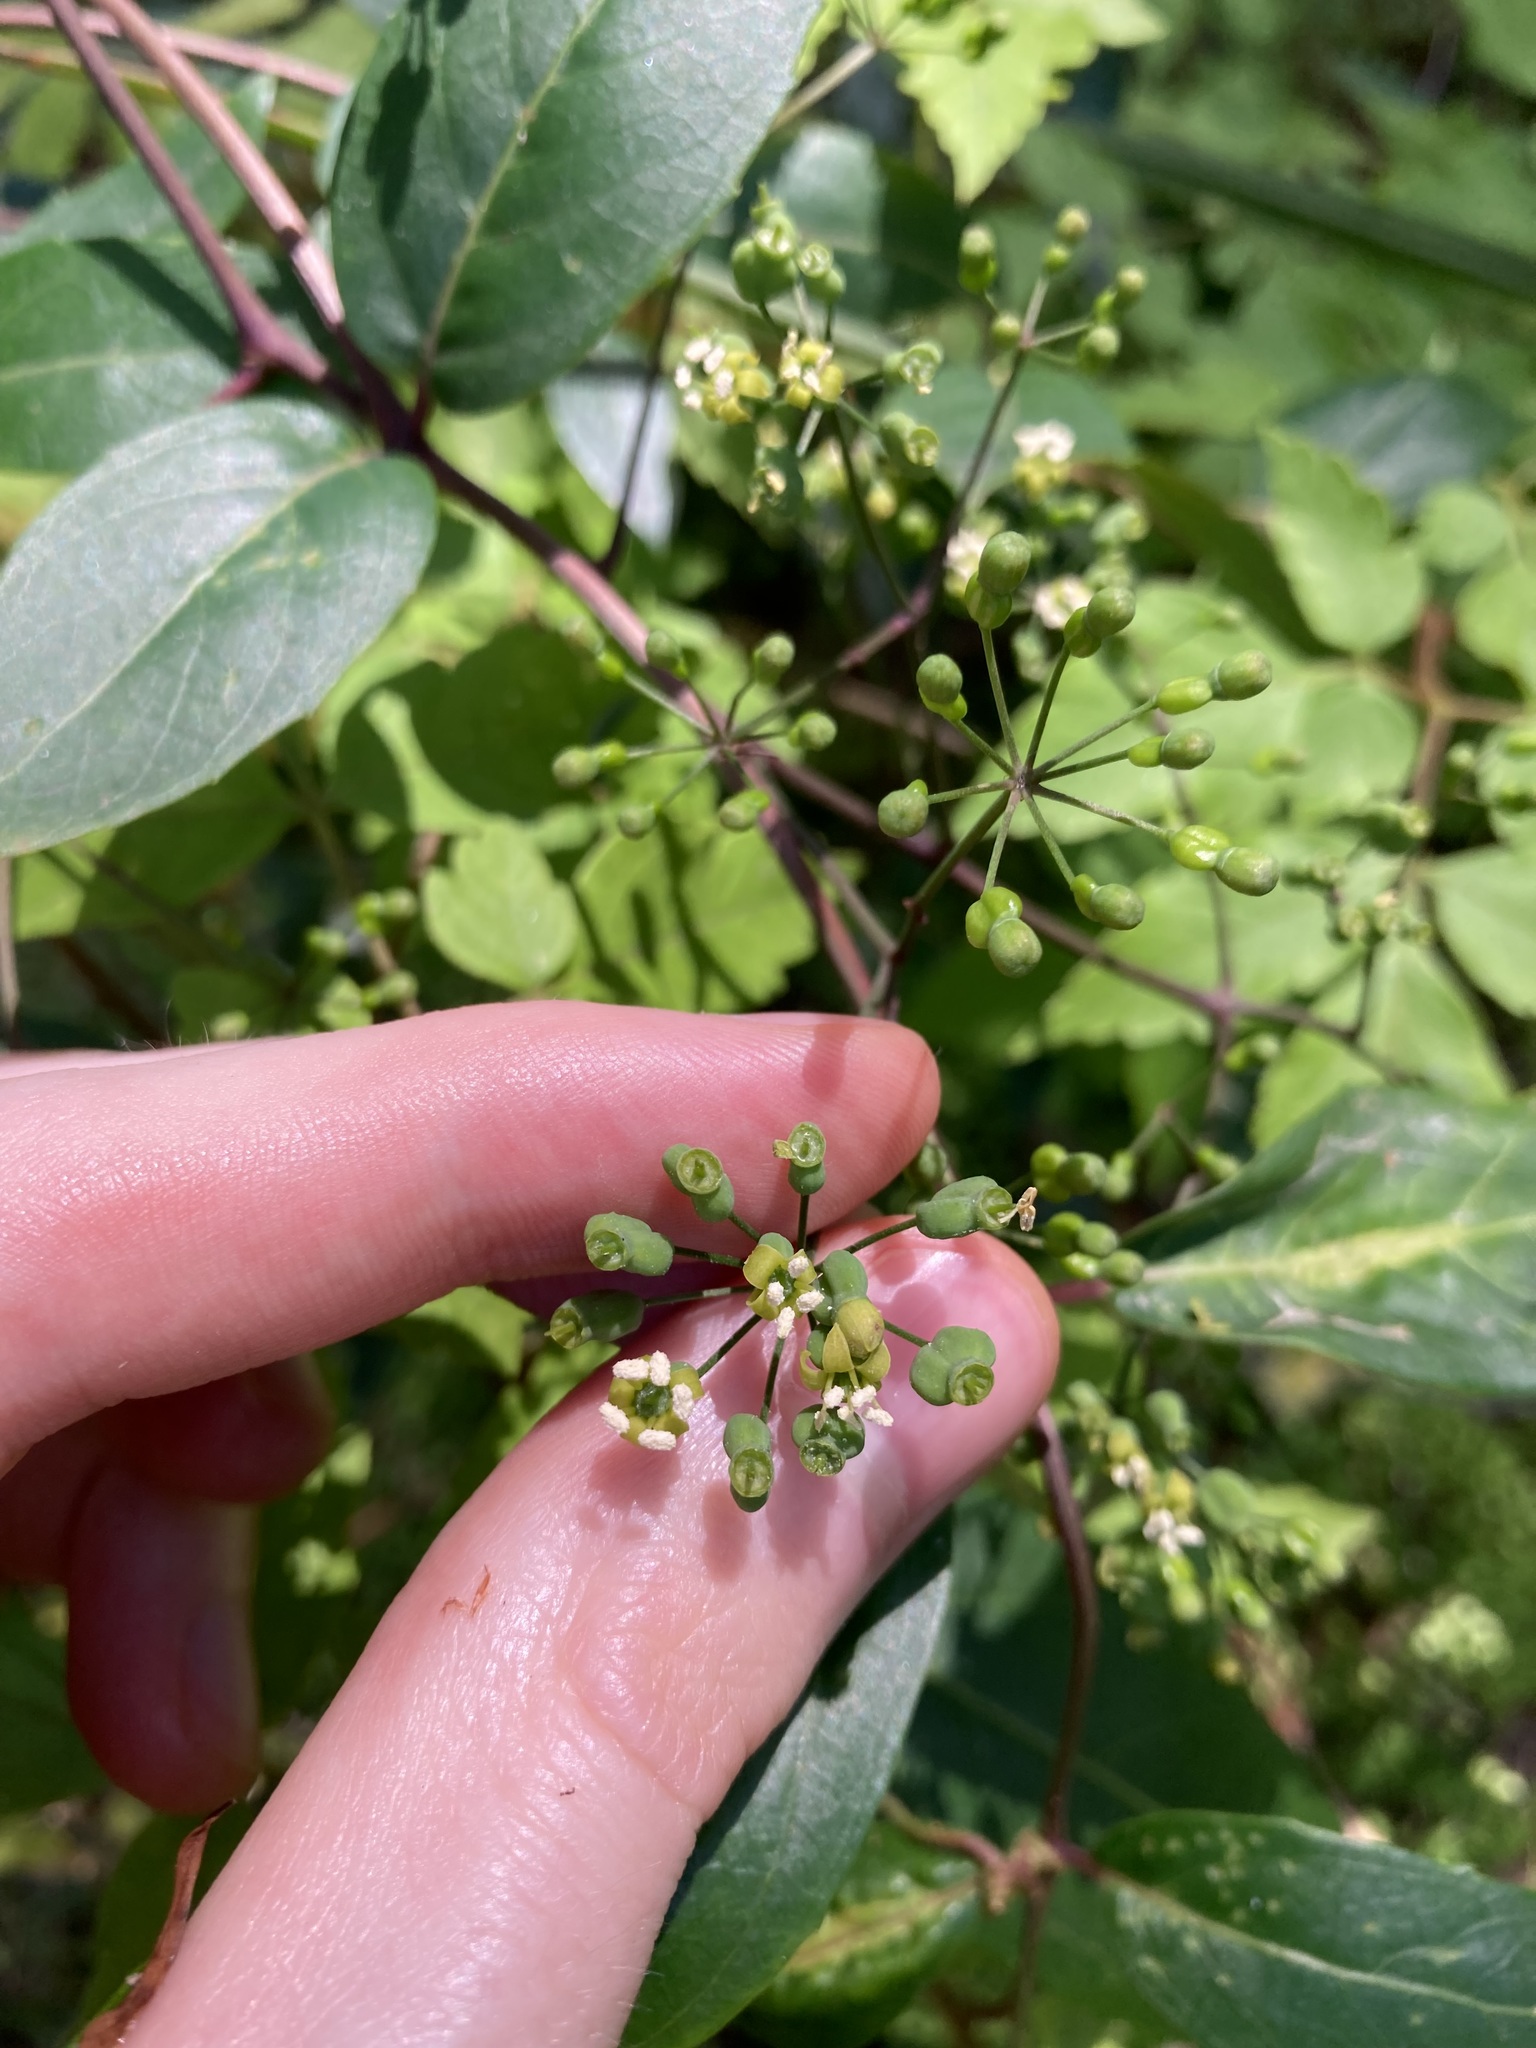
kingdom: Plantae
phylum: Tracheophyta
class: Magnoliopsida
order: Apiales
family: Araliaceae
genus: Polyscias
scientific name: Polyscias sambucifolia
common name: Elderberry-ash
